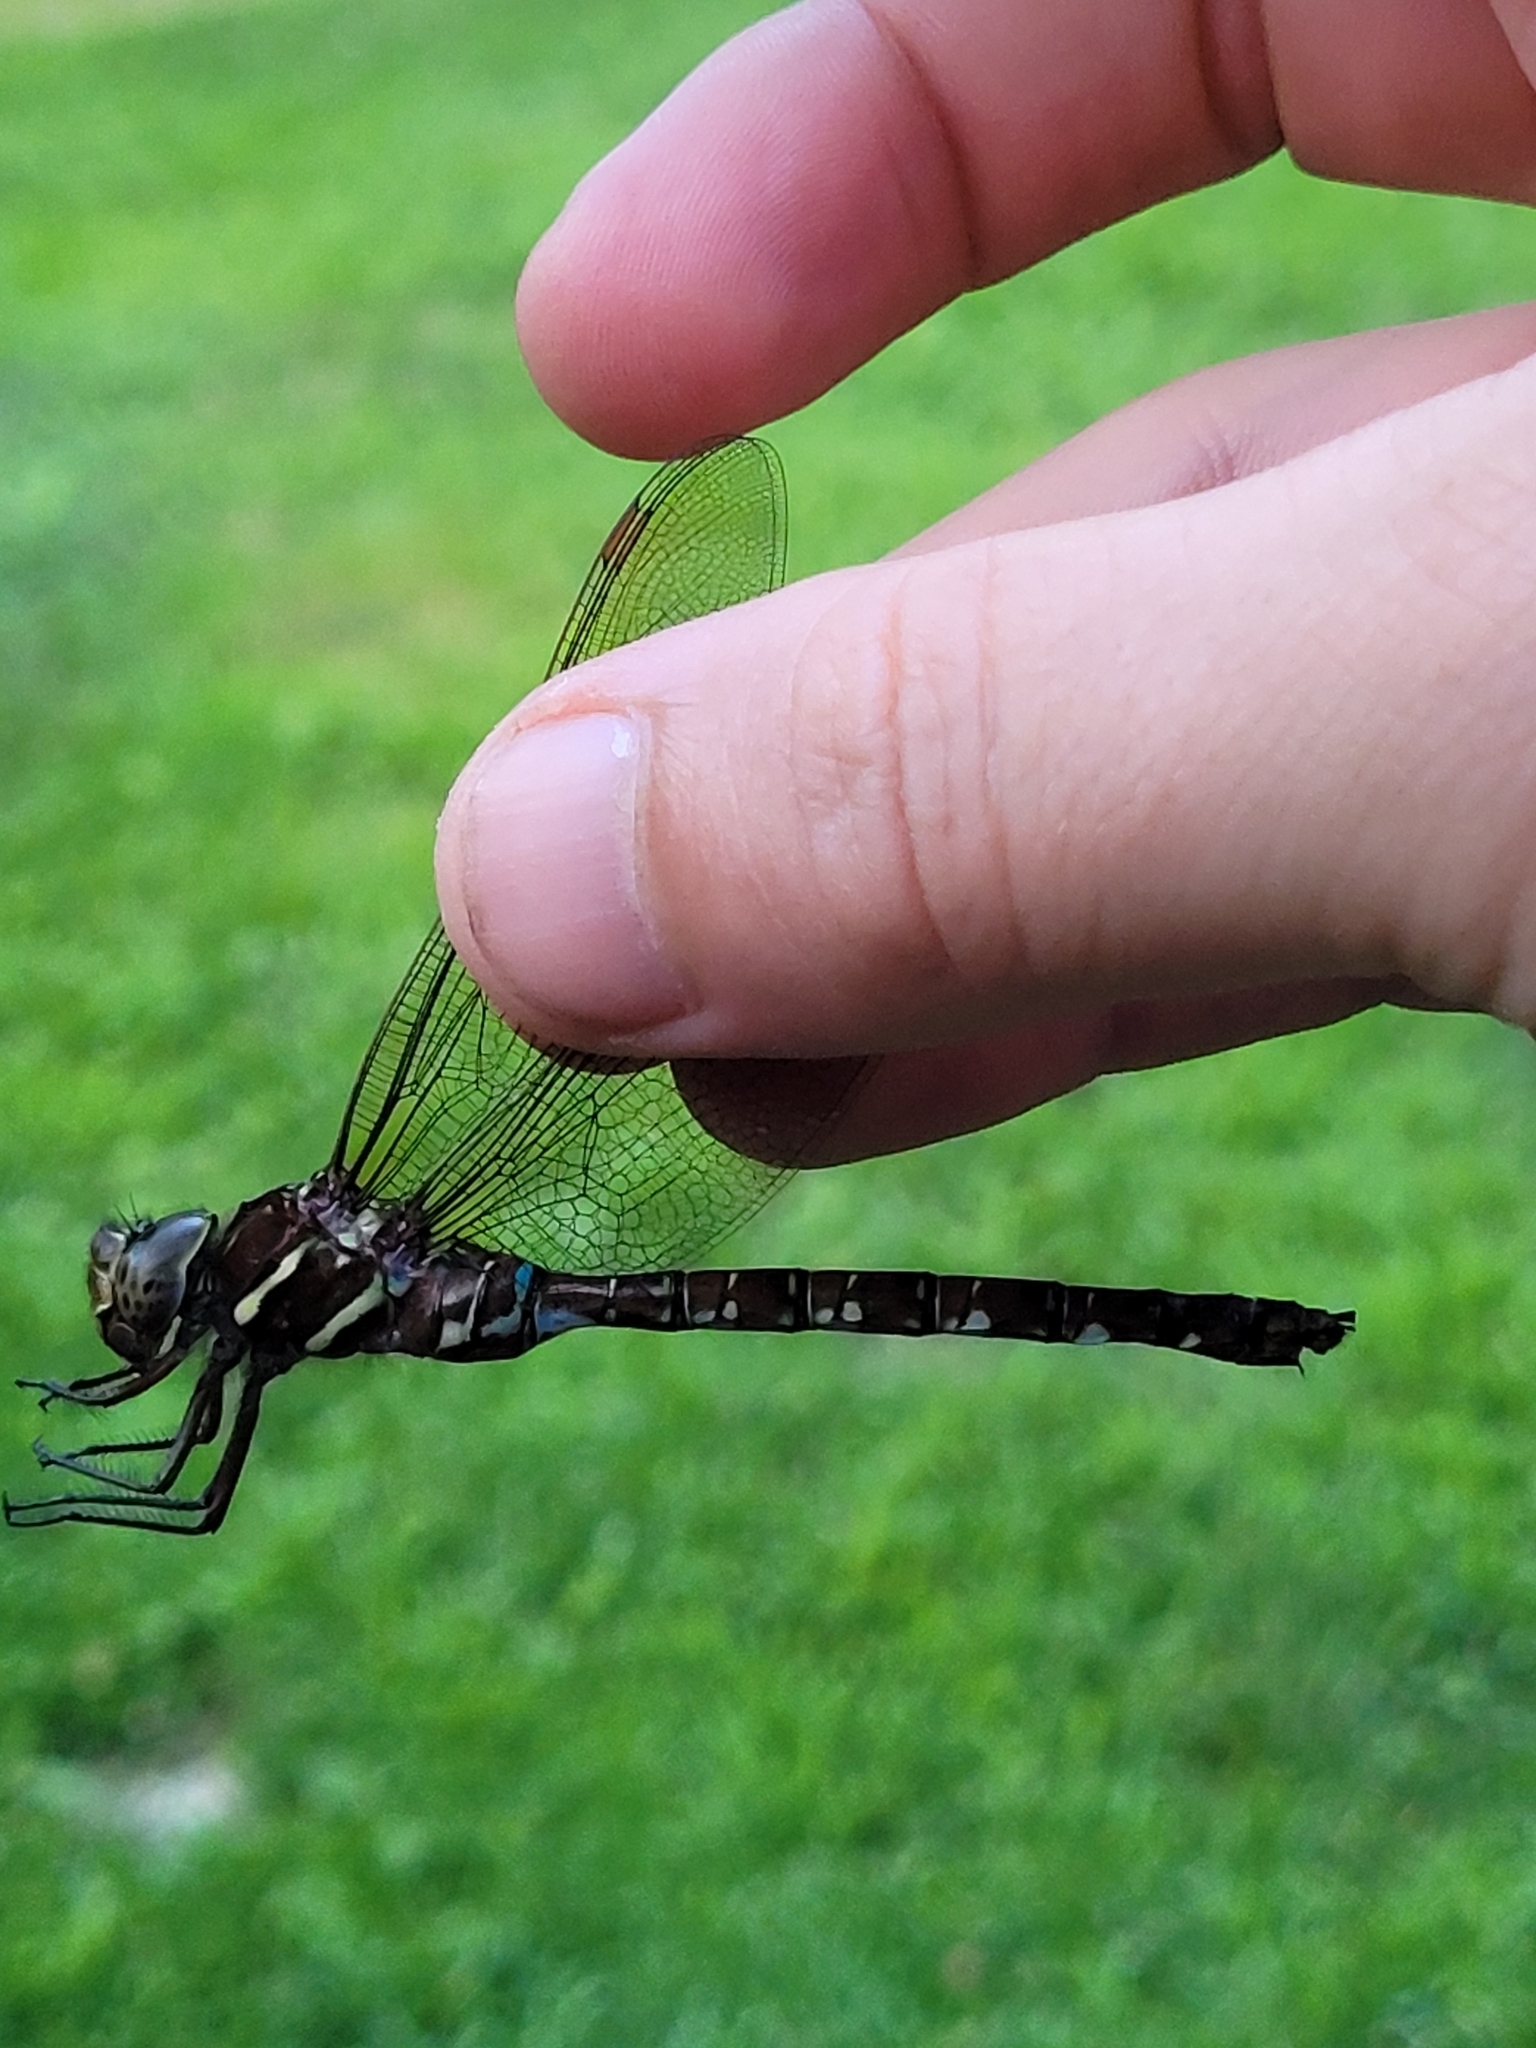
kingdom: Animalia
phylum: Arthropoda
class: Insecta
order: Odonata
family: Aeshnidae
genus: Aeshna
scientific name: Aeshna umbrosa
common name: Shadow darner
